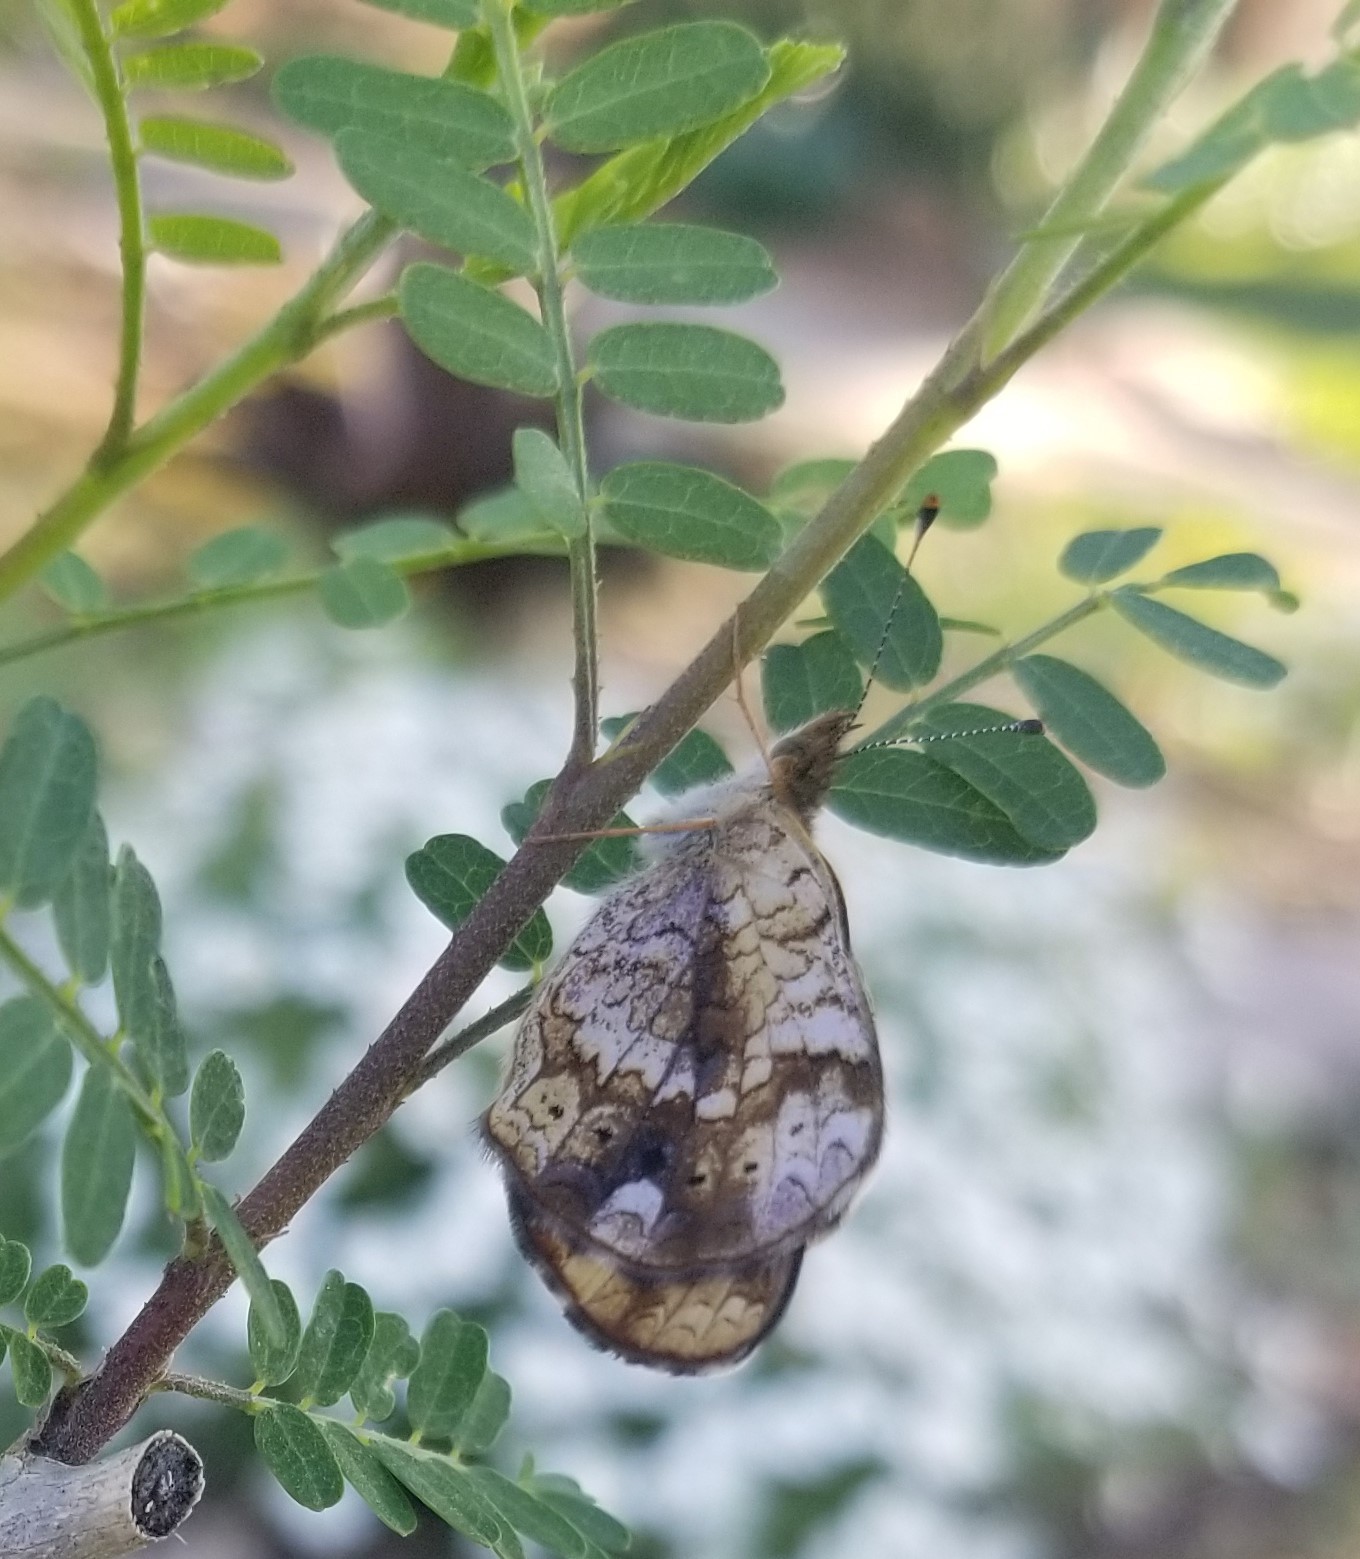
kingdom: Animalia
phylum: Arthropoda
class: Insecta
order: Lepidoptera
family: Nymphalidae
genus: Phyciodes
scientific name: Phyciodes tharos
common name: Pearl crescent
